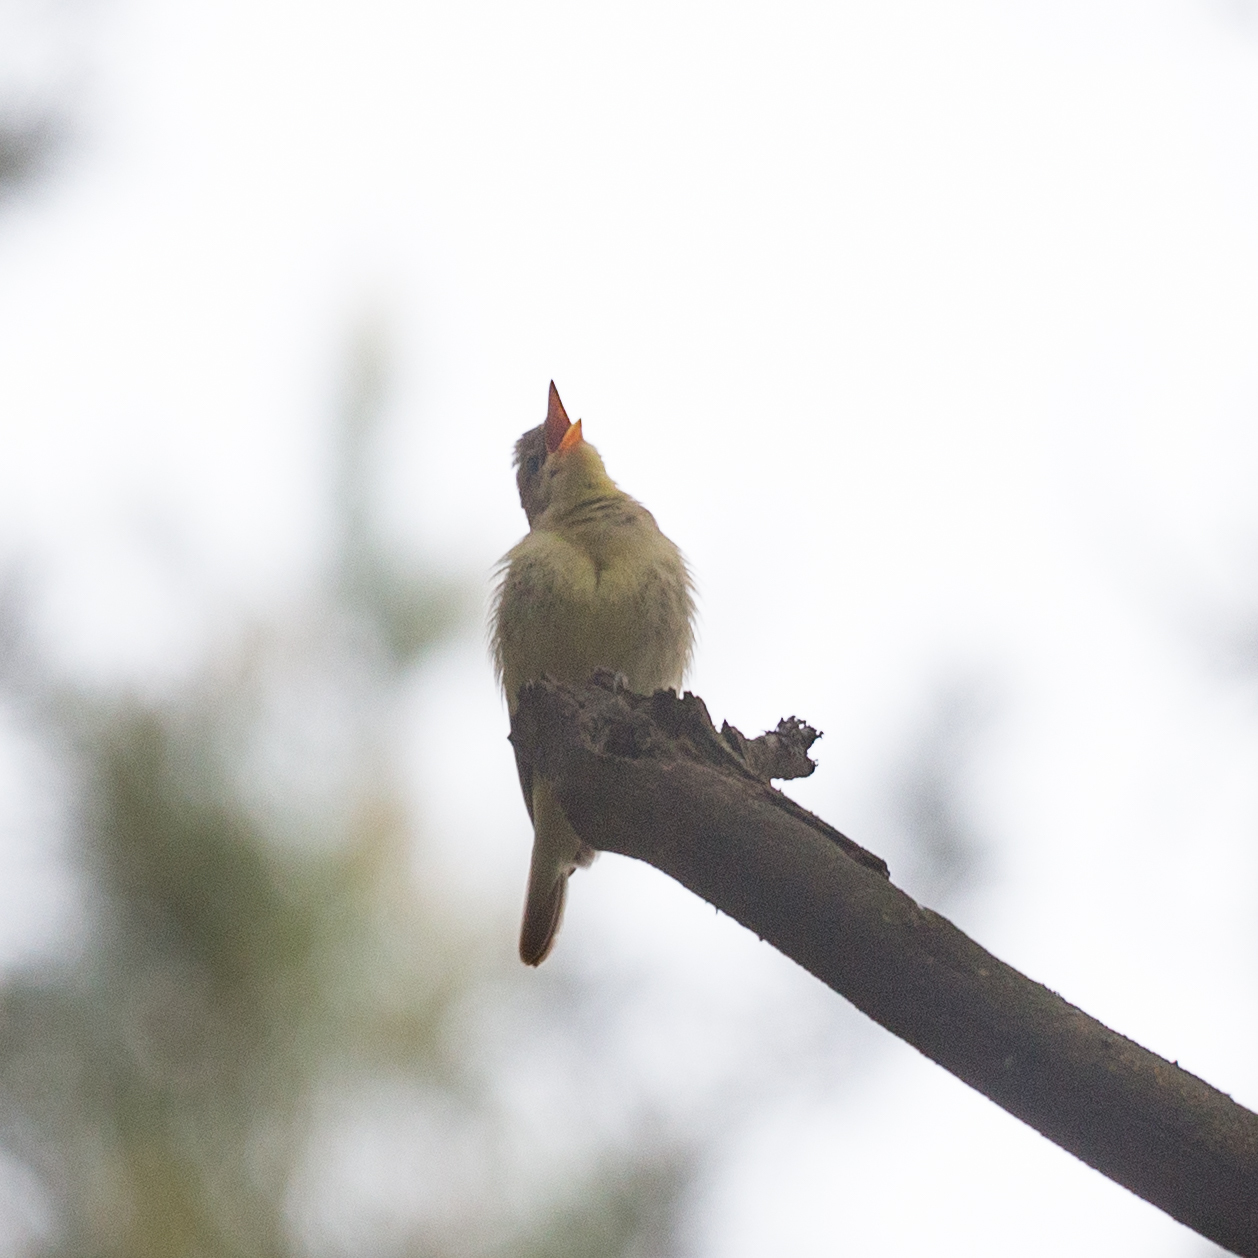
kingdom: Animalia
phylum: Chordata
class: Aves
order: Passeriformes
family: Acrocephalidae
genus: Hippolais
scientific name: Hippolais icterina
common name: Icterine warbler
